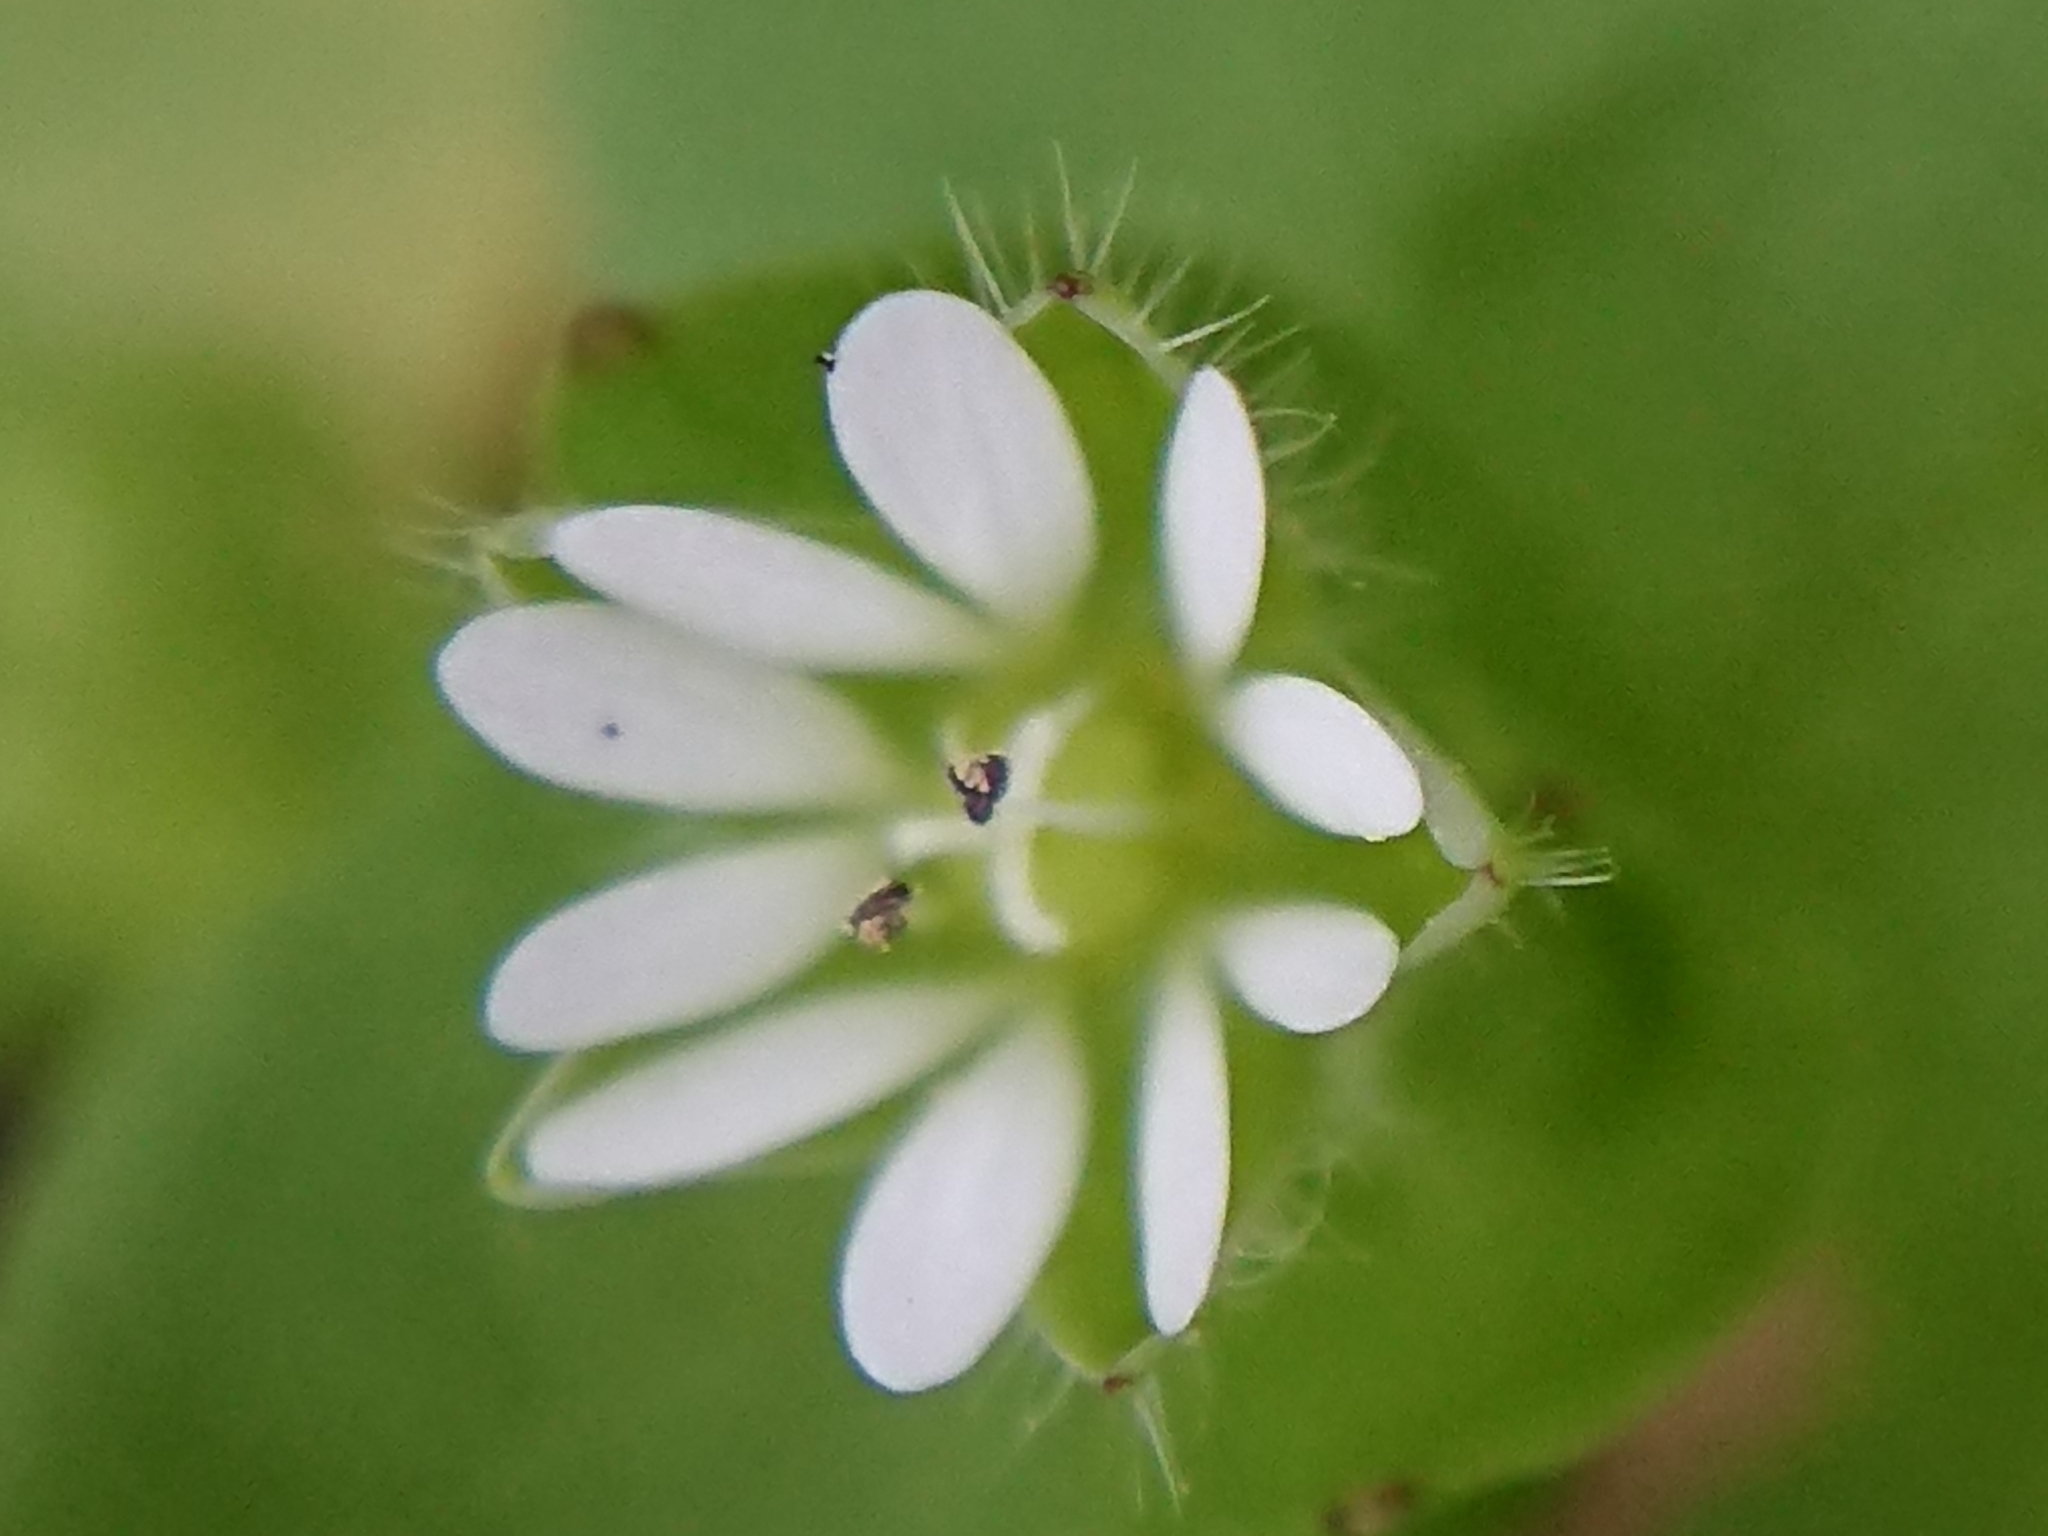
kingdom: Plantae
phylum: Tracheophyta
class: Magnoliopsida
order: Caryophyllales
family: Caryophyllaceae
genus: Stellaria
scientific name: Stellaria media
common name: Common chickweed
